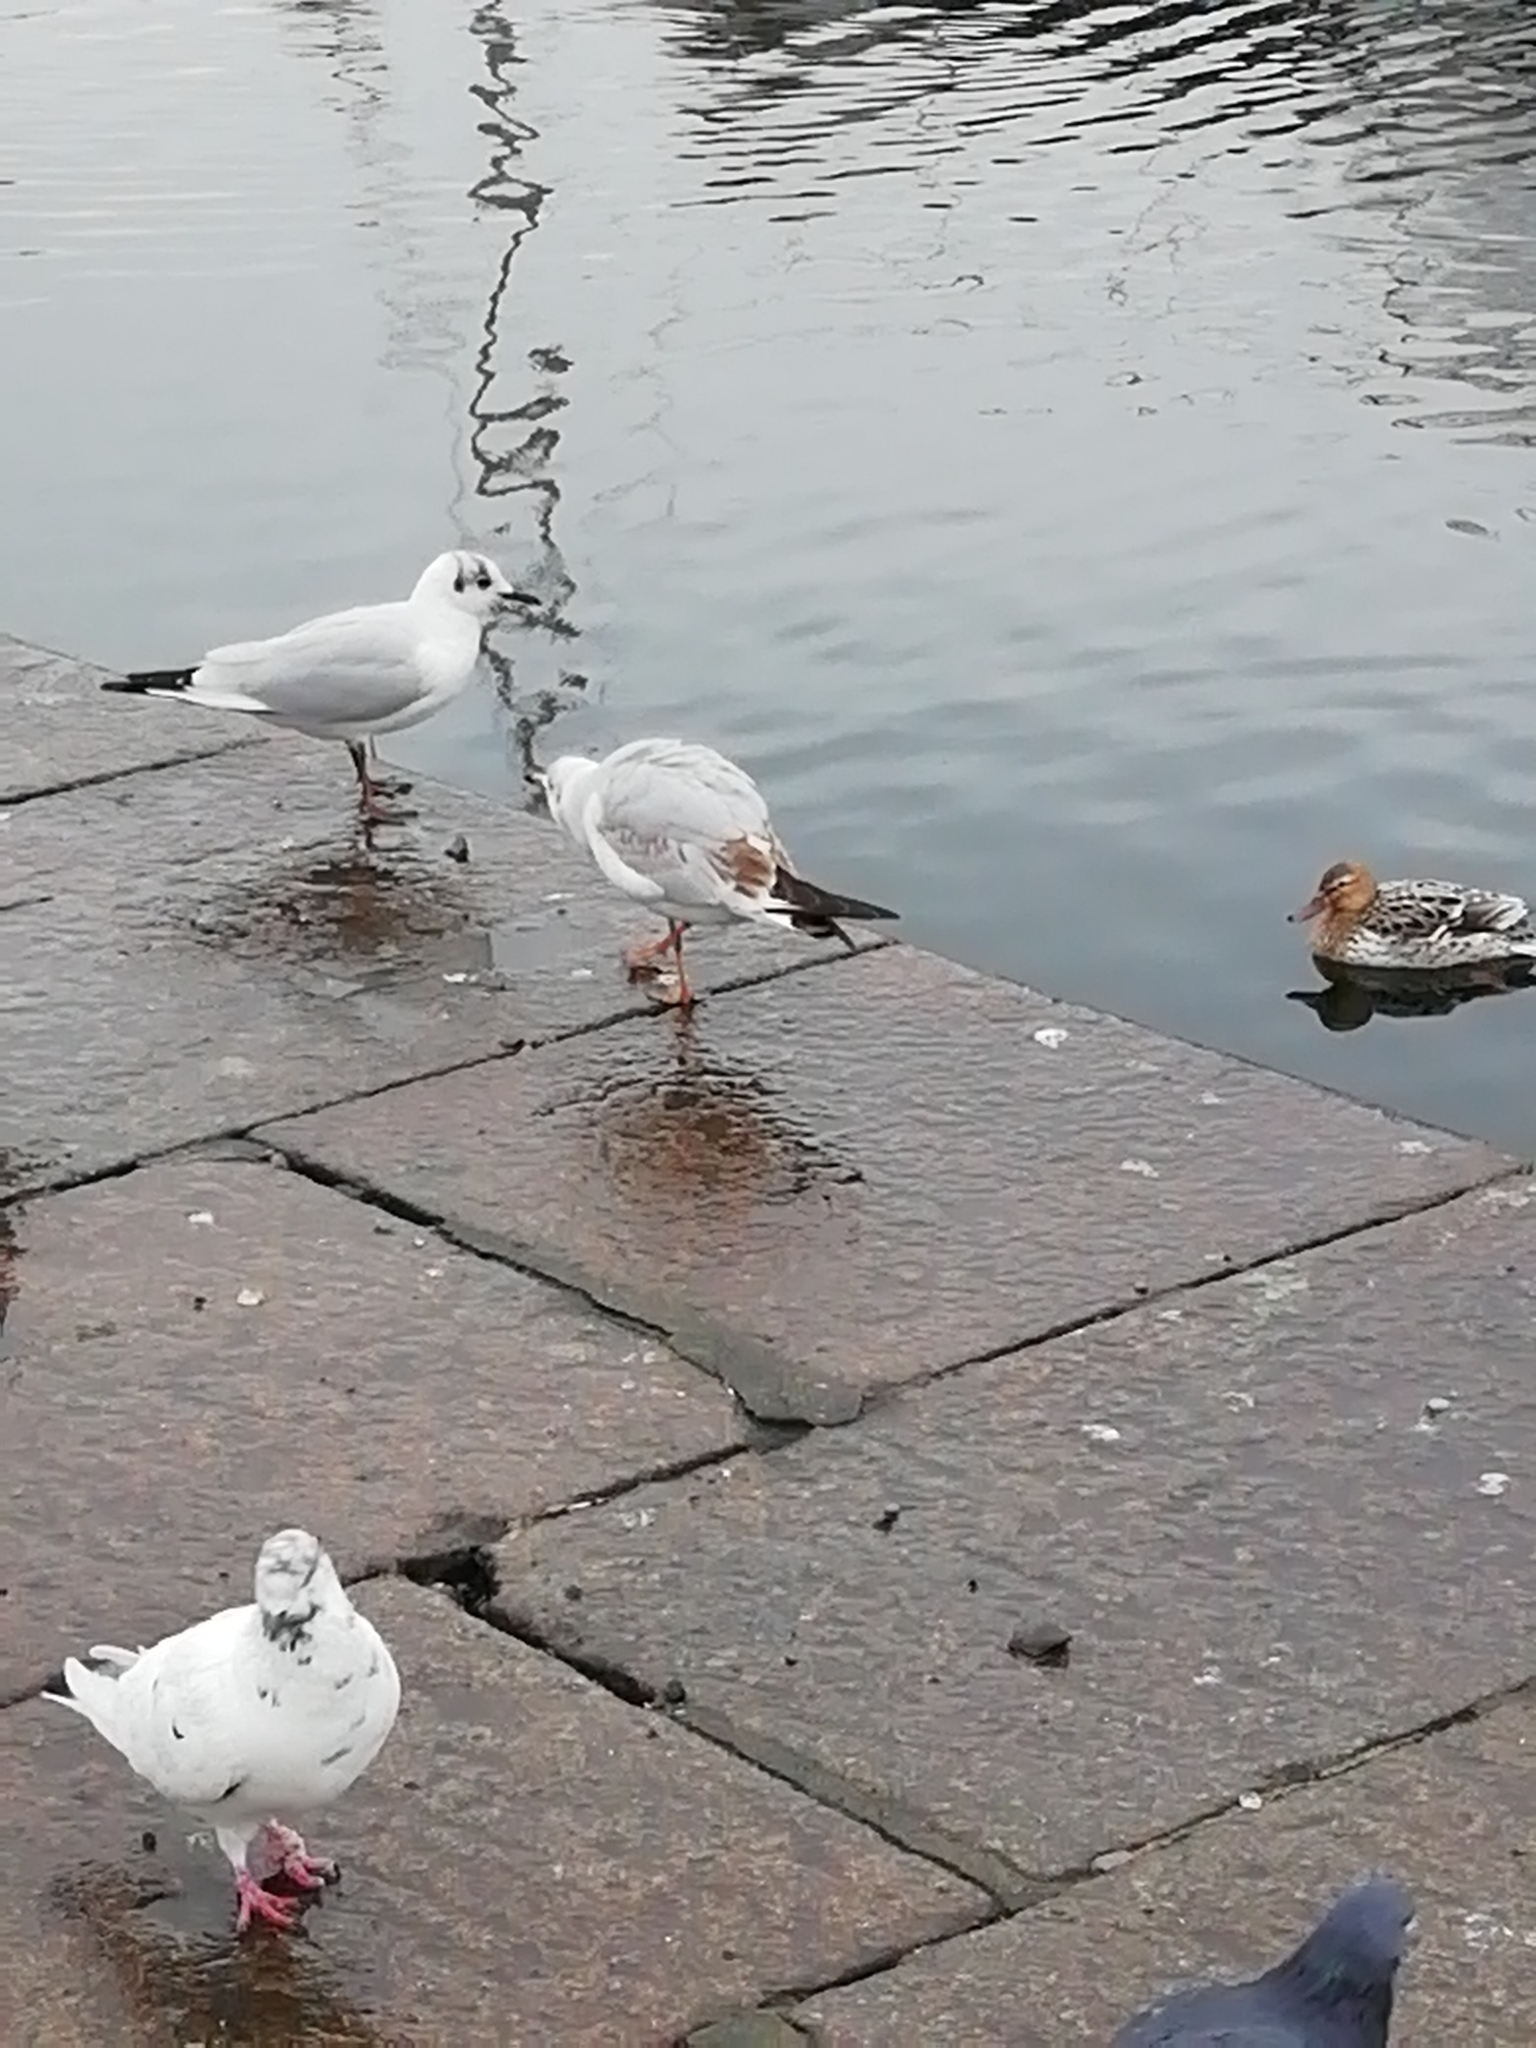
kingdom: Animalia
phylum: Chordata
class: Aves
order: Charadriiformes
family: Laridae
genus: Chroicocephalus
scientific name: Chroicocephalus ridibundus
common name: Black-headed gull
